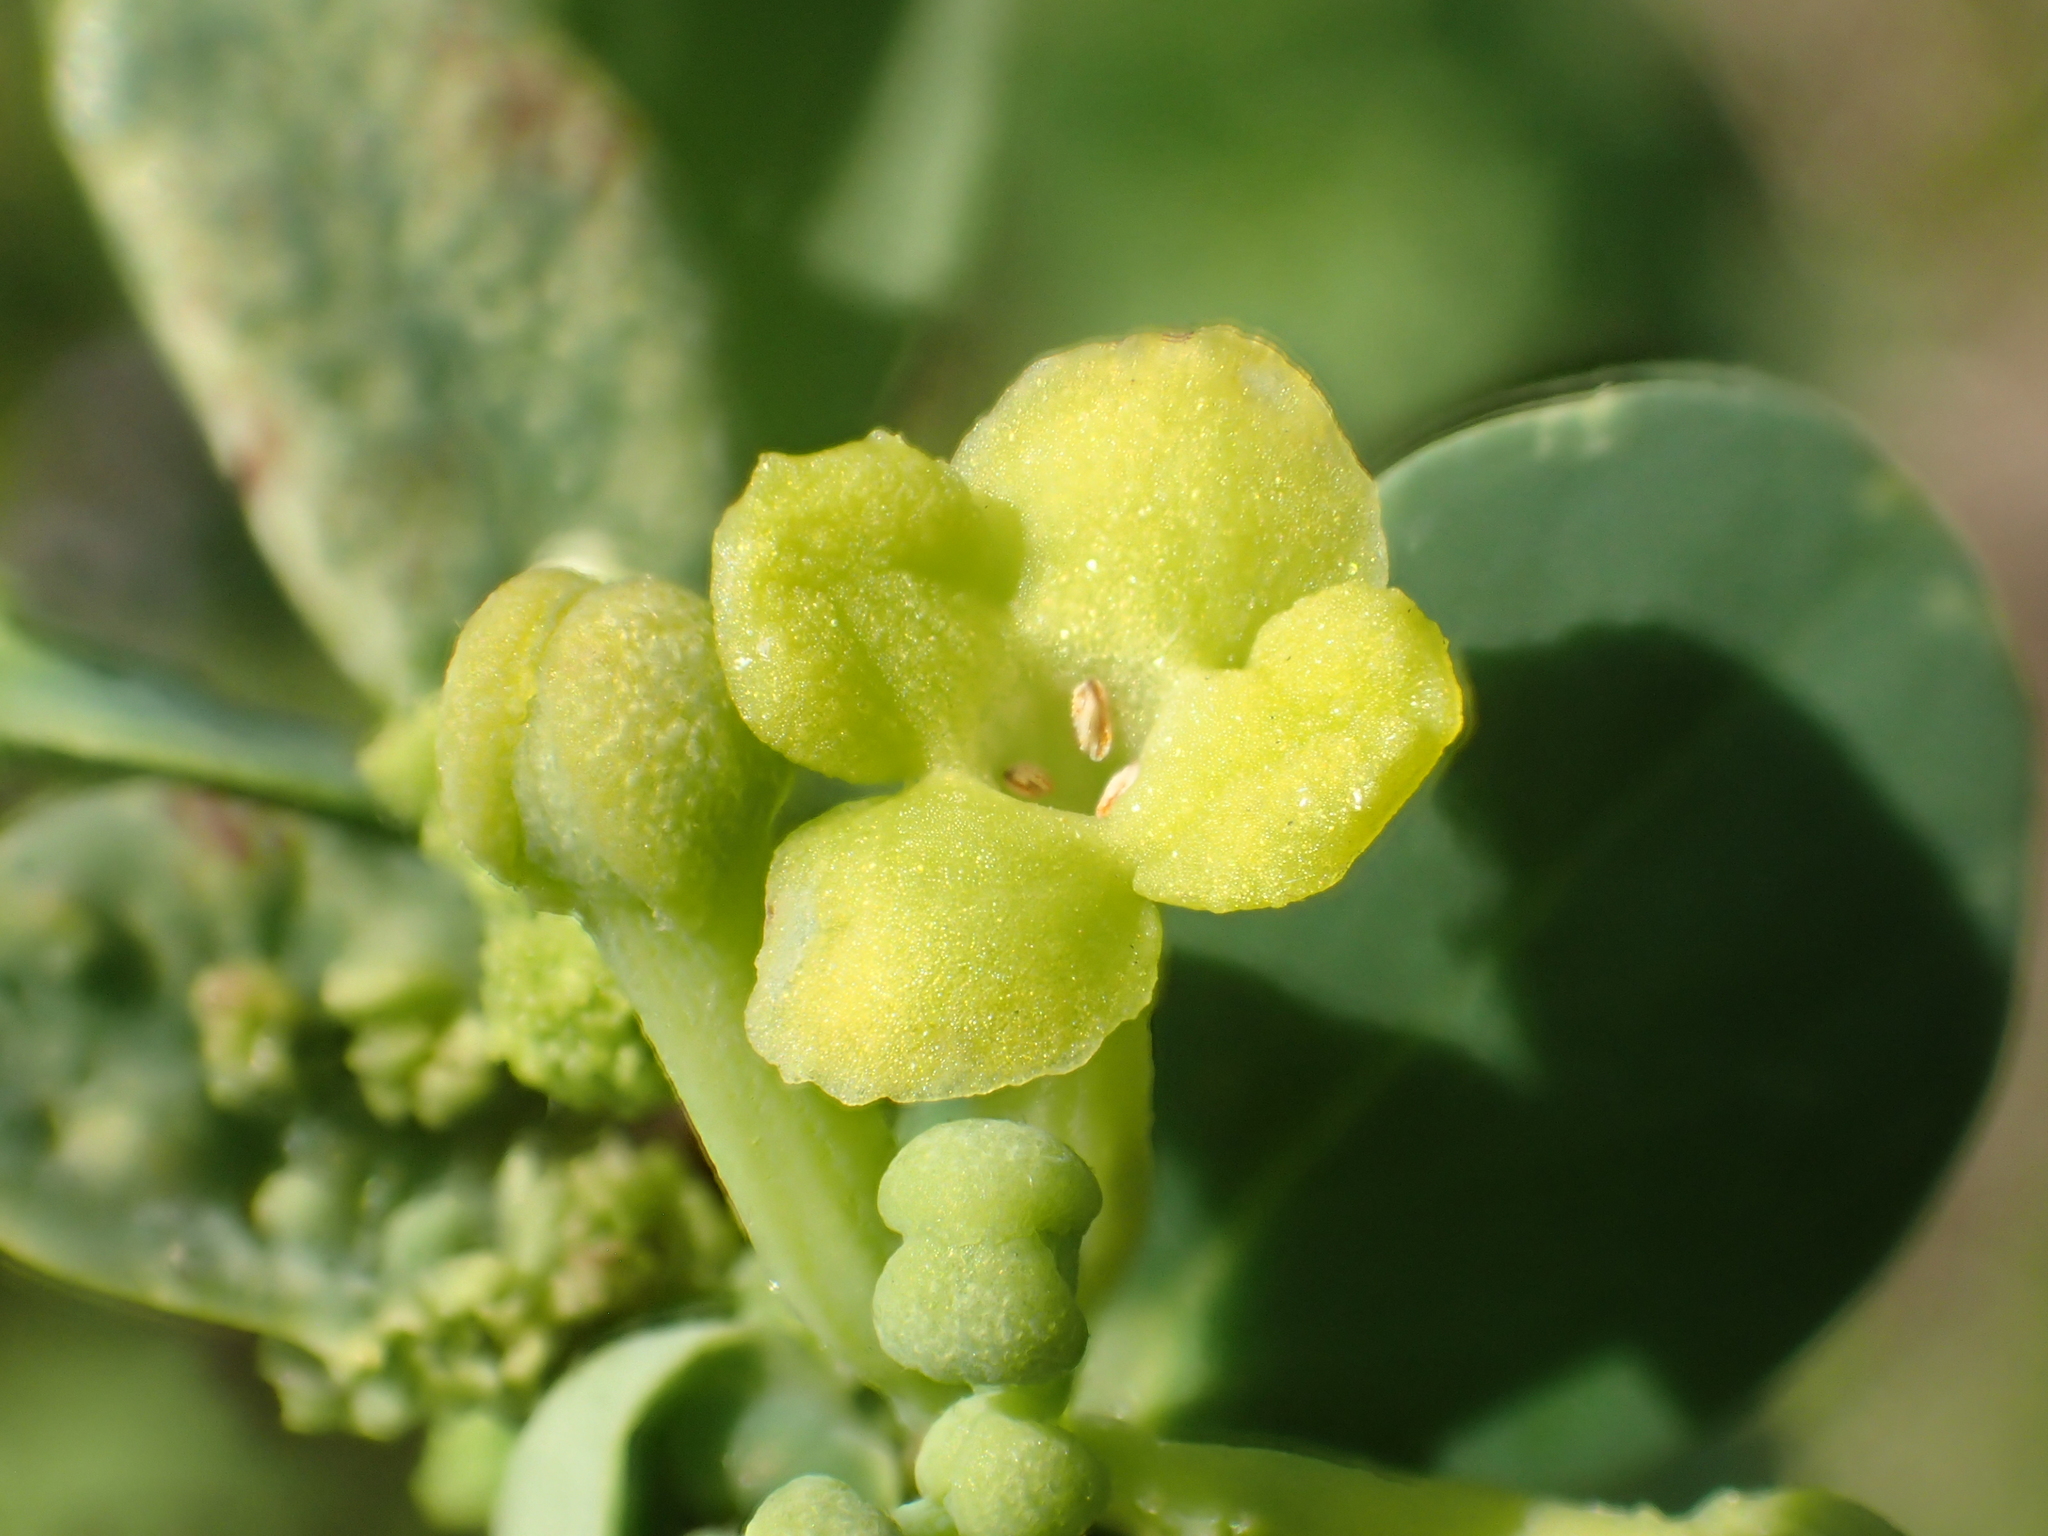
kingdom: Plantae
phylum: Tracheophyta
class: Magnoliopsida
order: Malvales
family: Thymelaeaceae
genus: Wikstroemia
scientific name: Wikstroemia indica
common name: Tiebush
